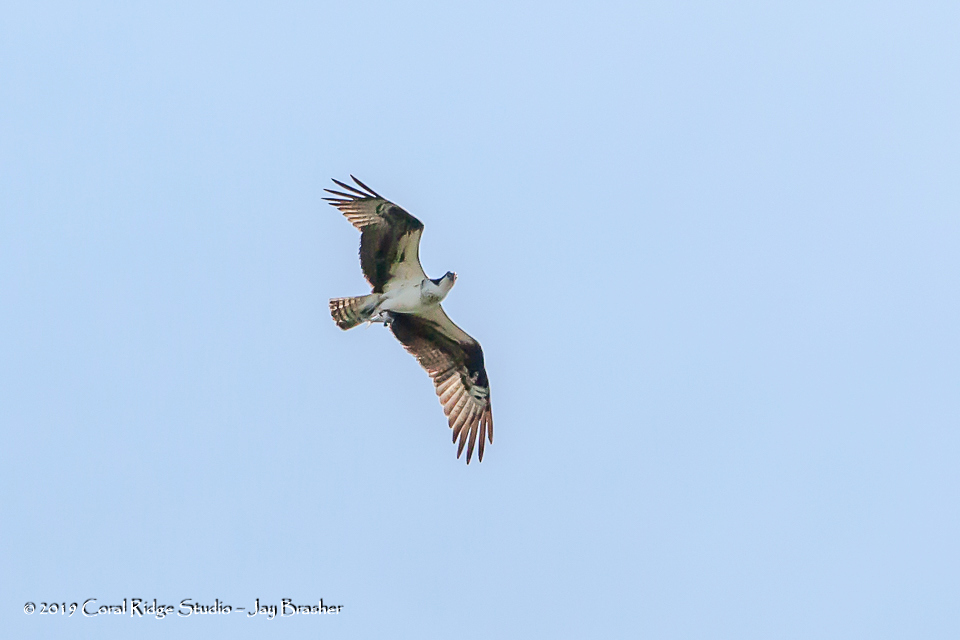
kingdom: Animalia
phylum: Chordata
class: Aves
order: Accipitriformes
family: Pandionidae
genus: Pandion
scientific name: Pandion haliaetus
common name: Osprey
